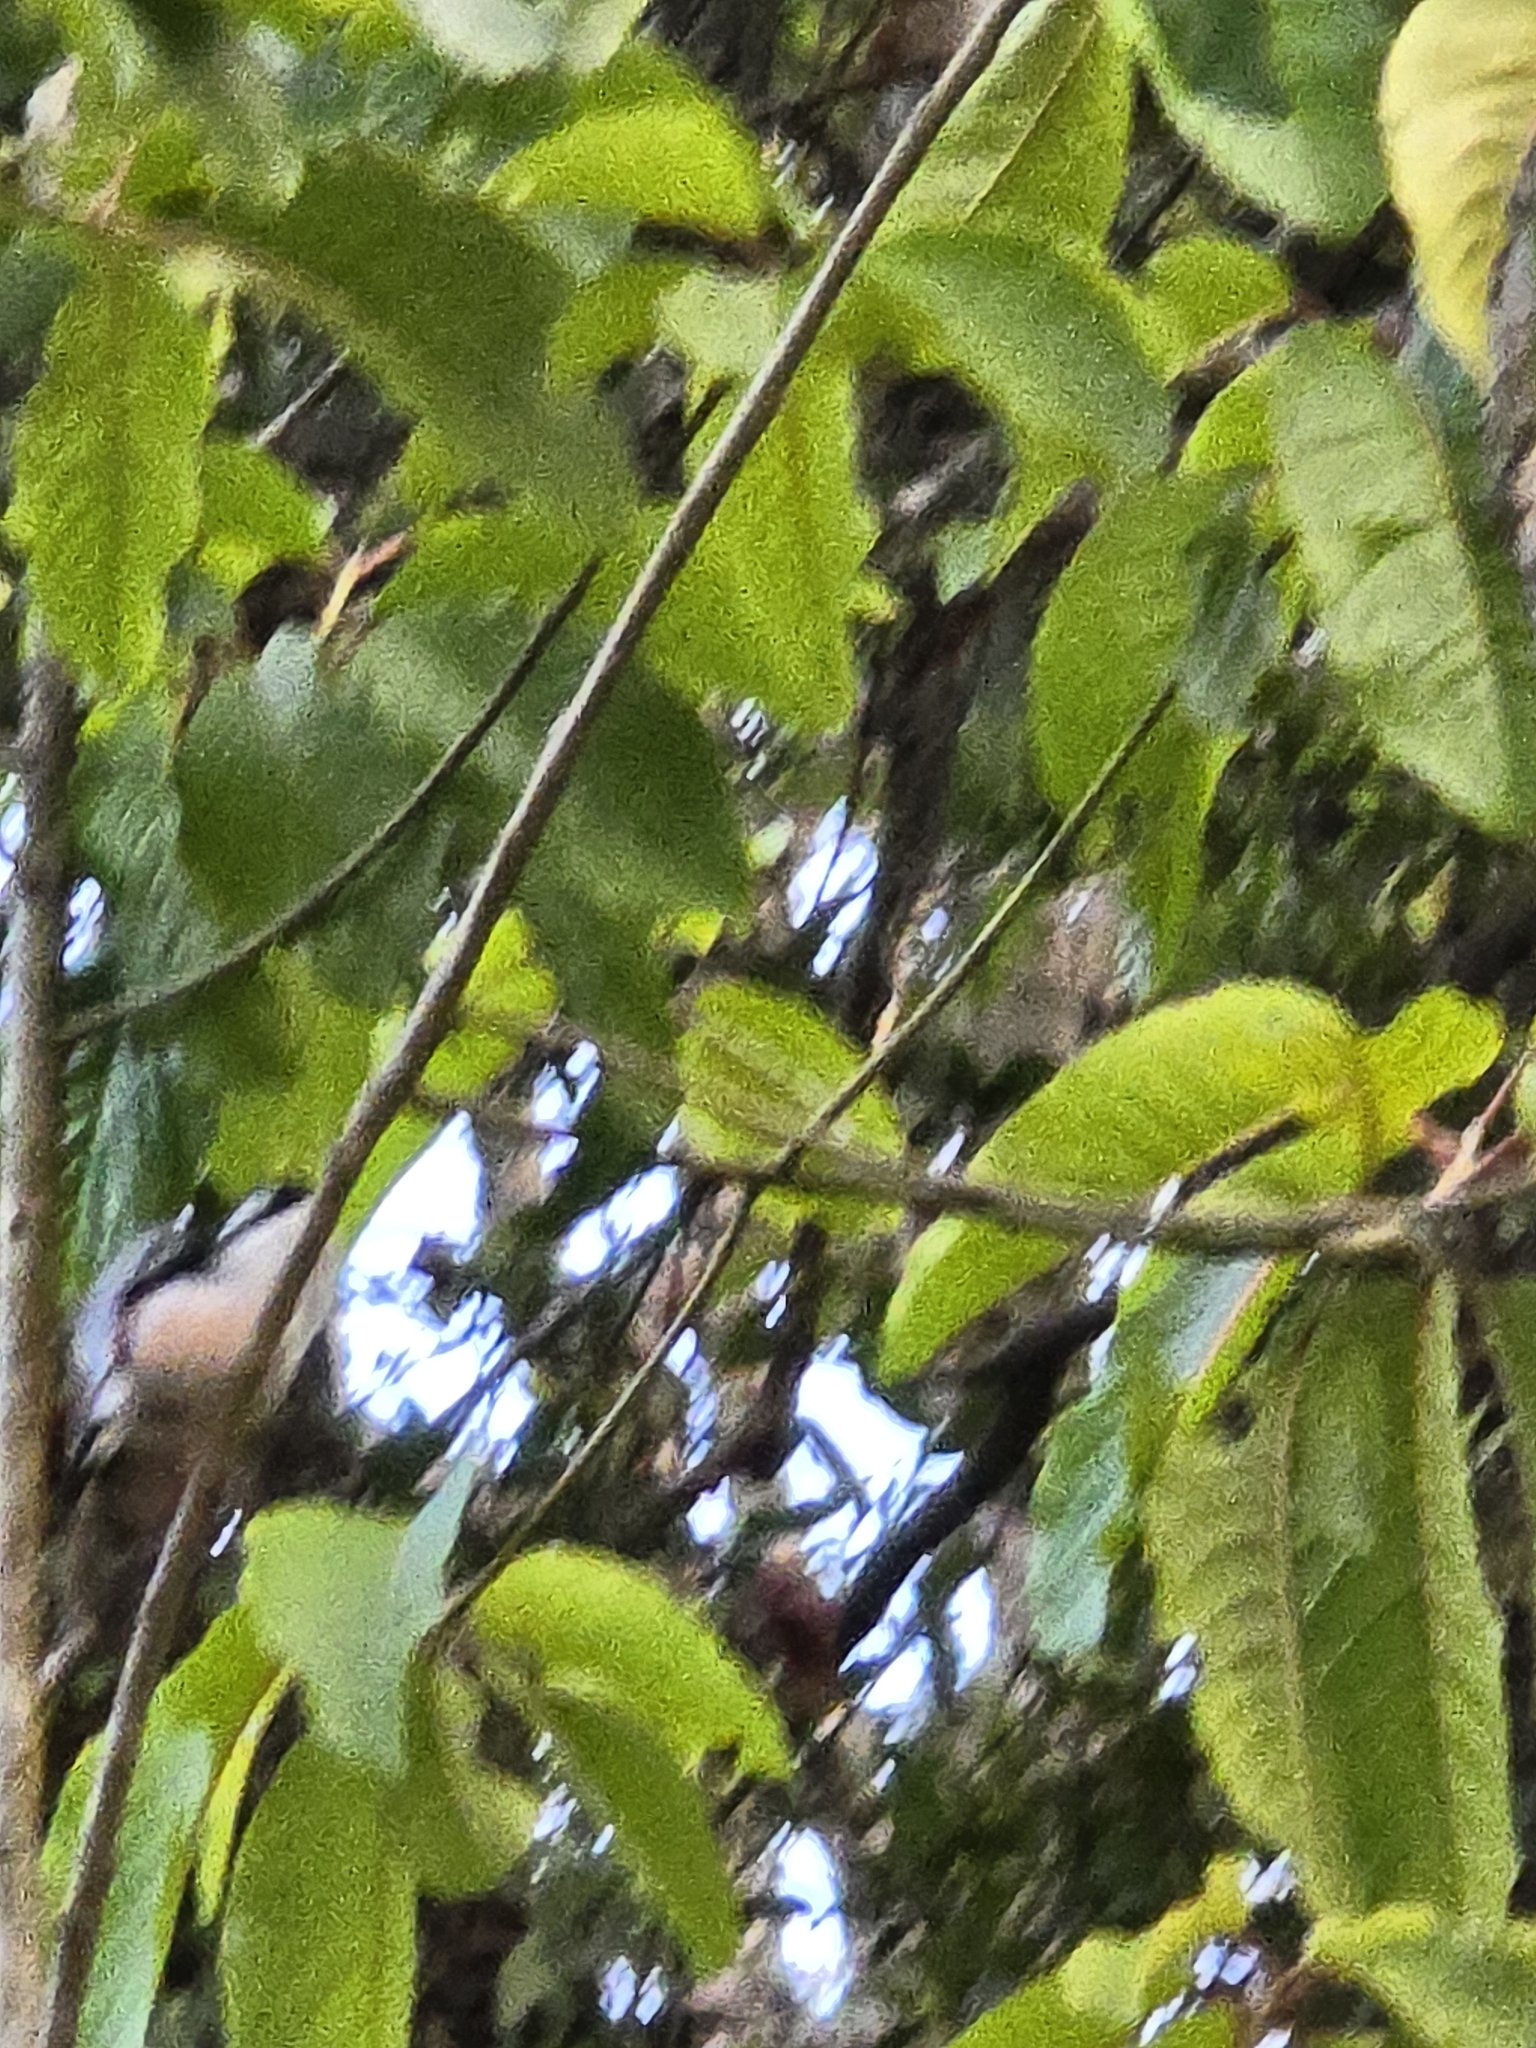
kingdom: Animalia
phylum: Chordata
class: Aves
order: Passeriformes
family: Vireonidae
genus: Pteruthius
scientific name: Pteruthius aeralatus
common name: Blyth's shrike-babbler
